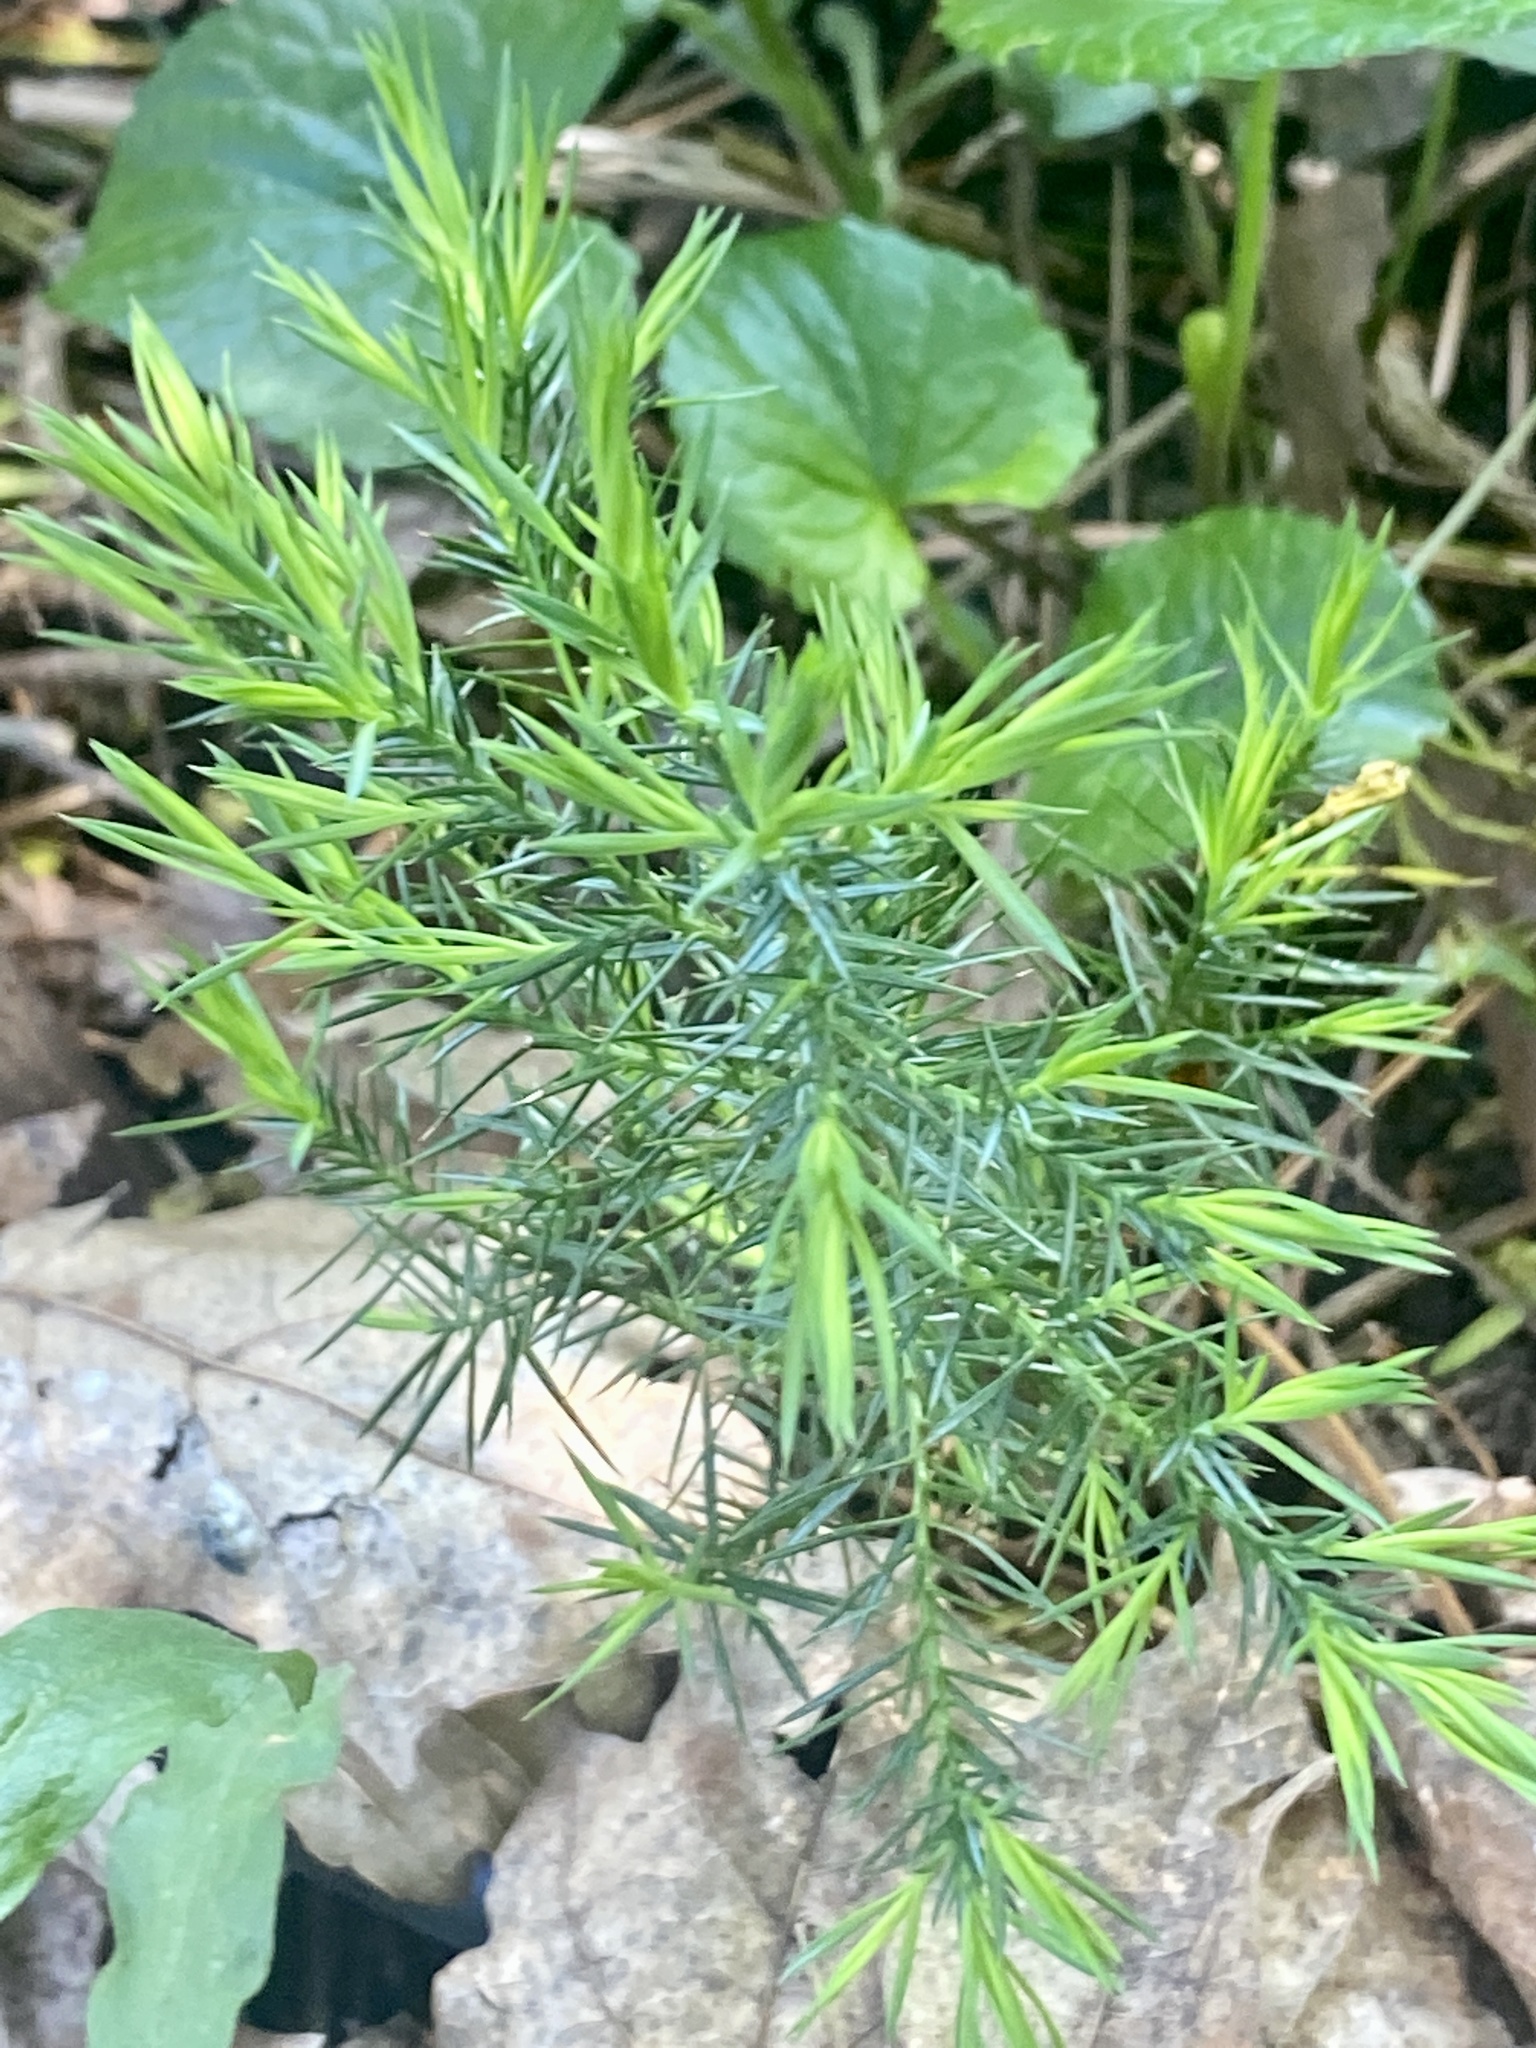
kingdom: Plantae
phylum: Tracheophyta
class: Pinopsida
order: Pinales
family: Cupressaceae
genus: Juniperus
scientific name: Juniperus virginiana
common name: Red juniper
